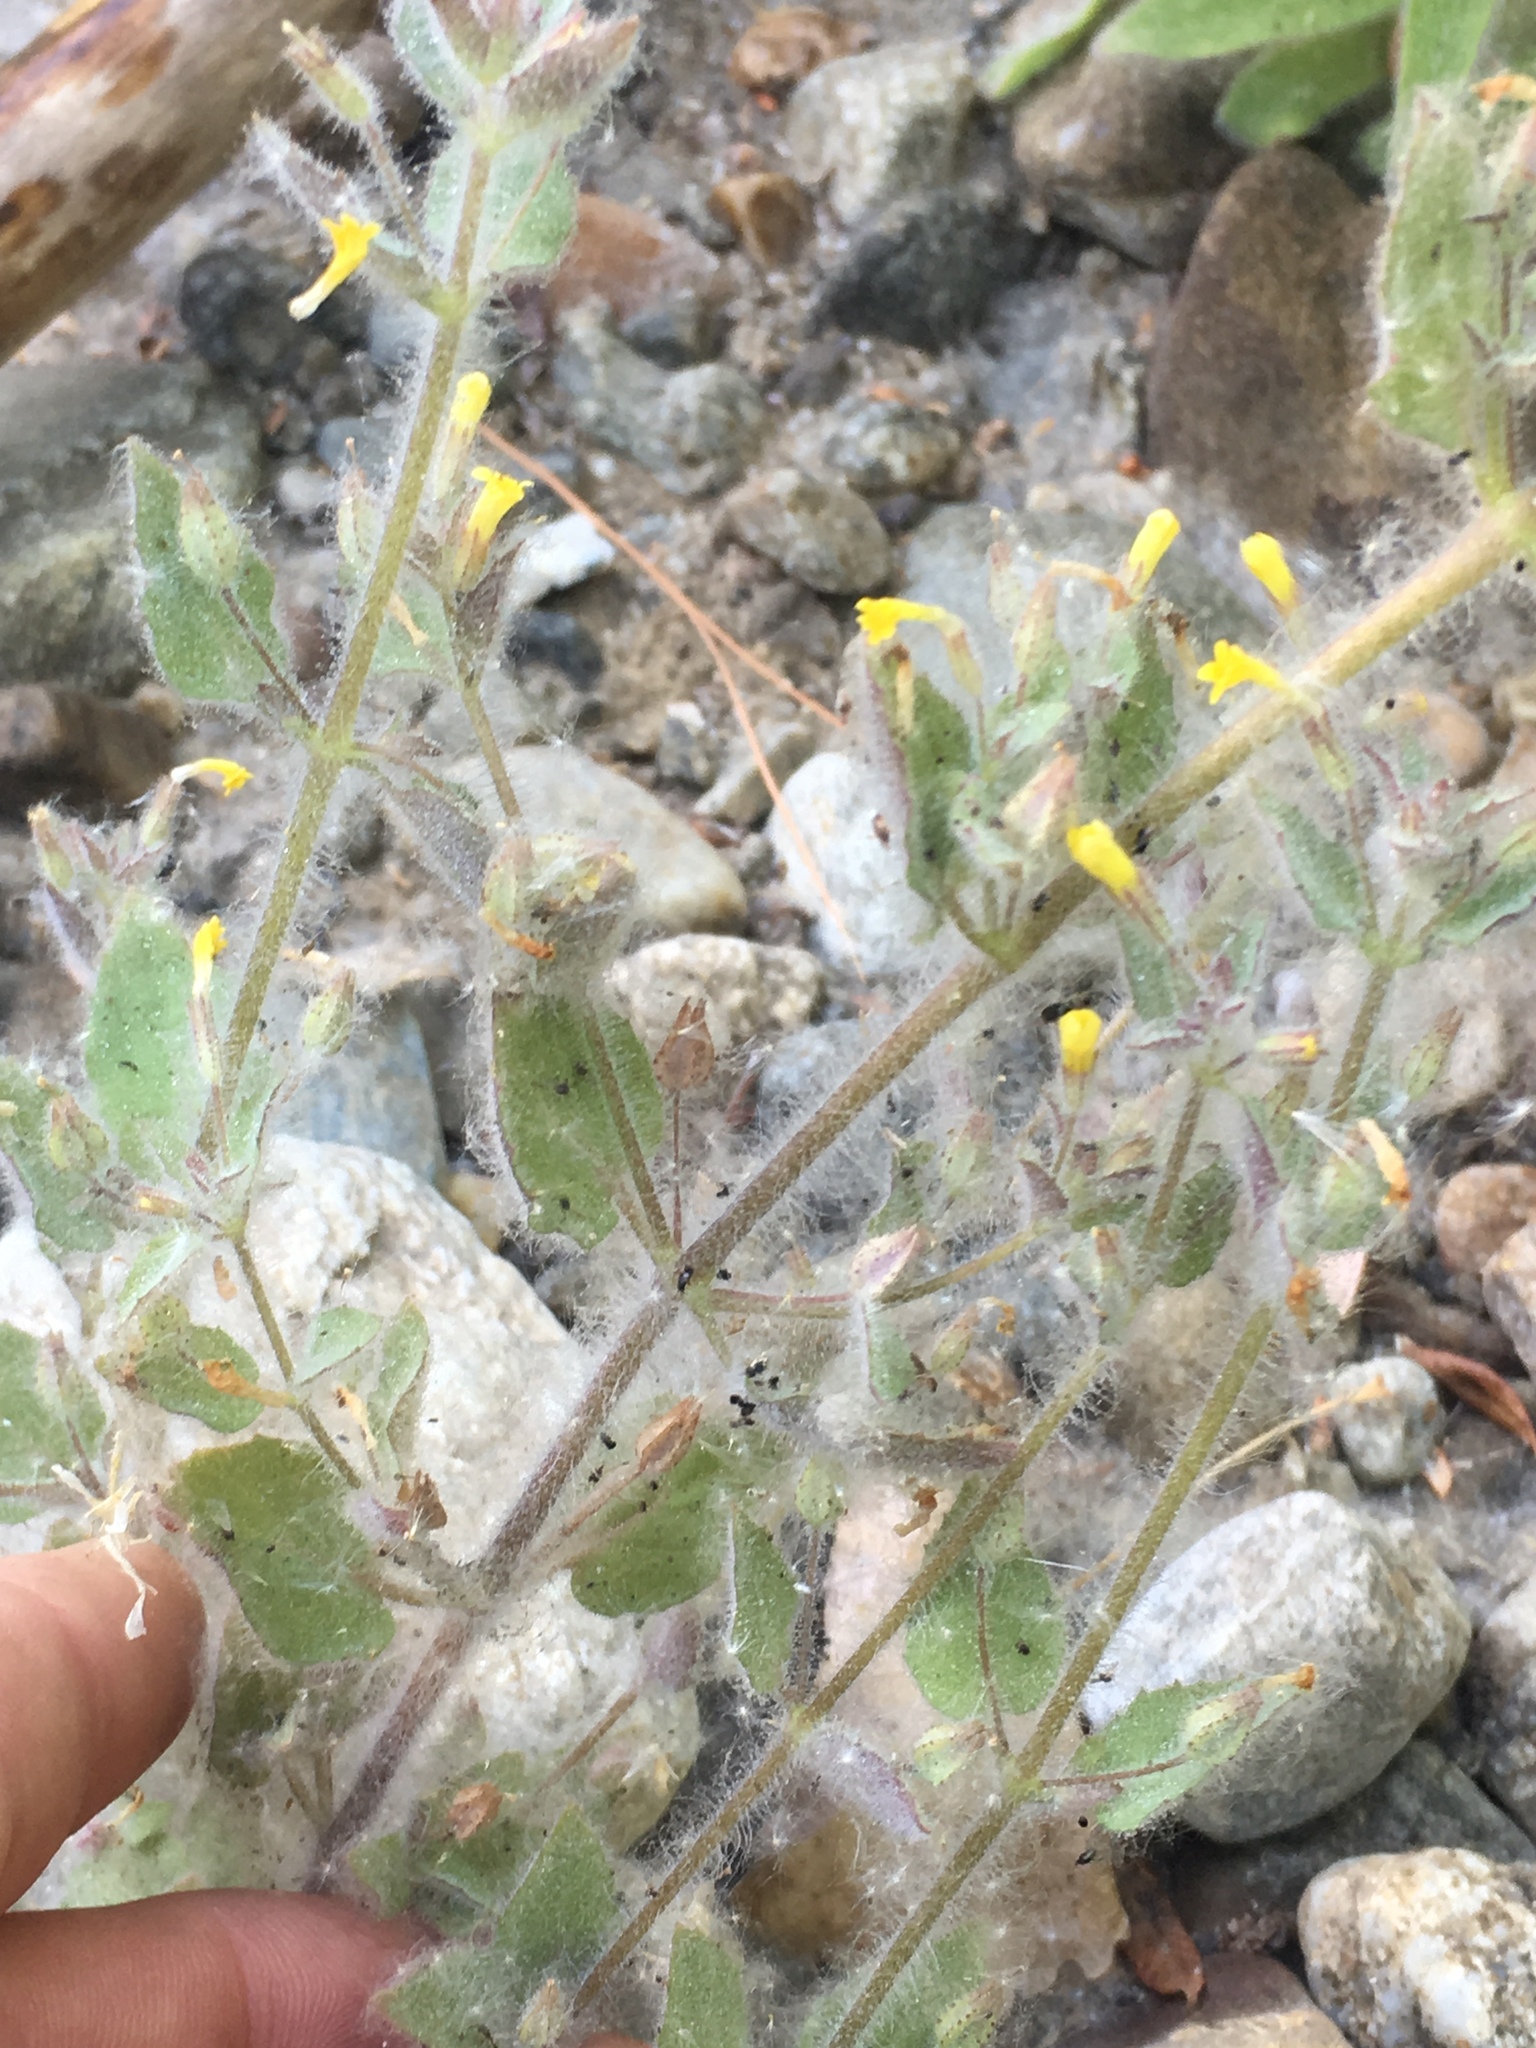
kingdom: Plantae
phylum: Tracheophyta
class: Magnoliopsida
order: Lamiales
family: Phrymaceae
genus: Erythranthe
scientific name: Erythranthe floribunda
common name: Floriferous monkeyflower
